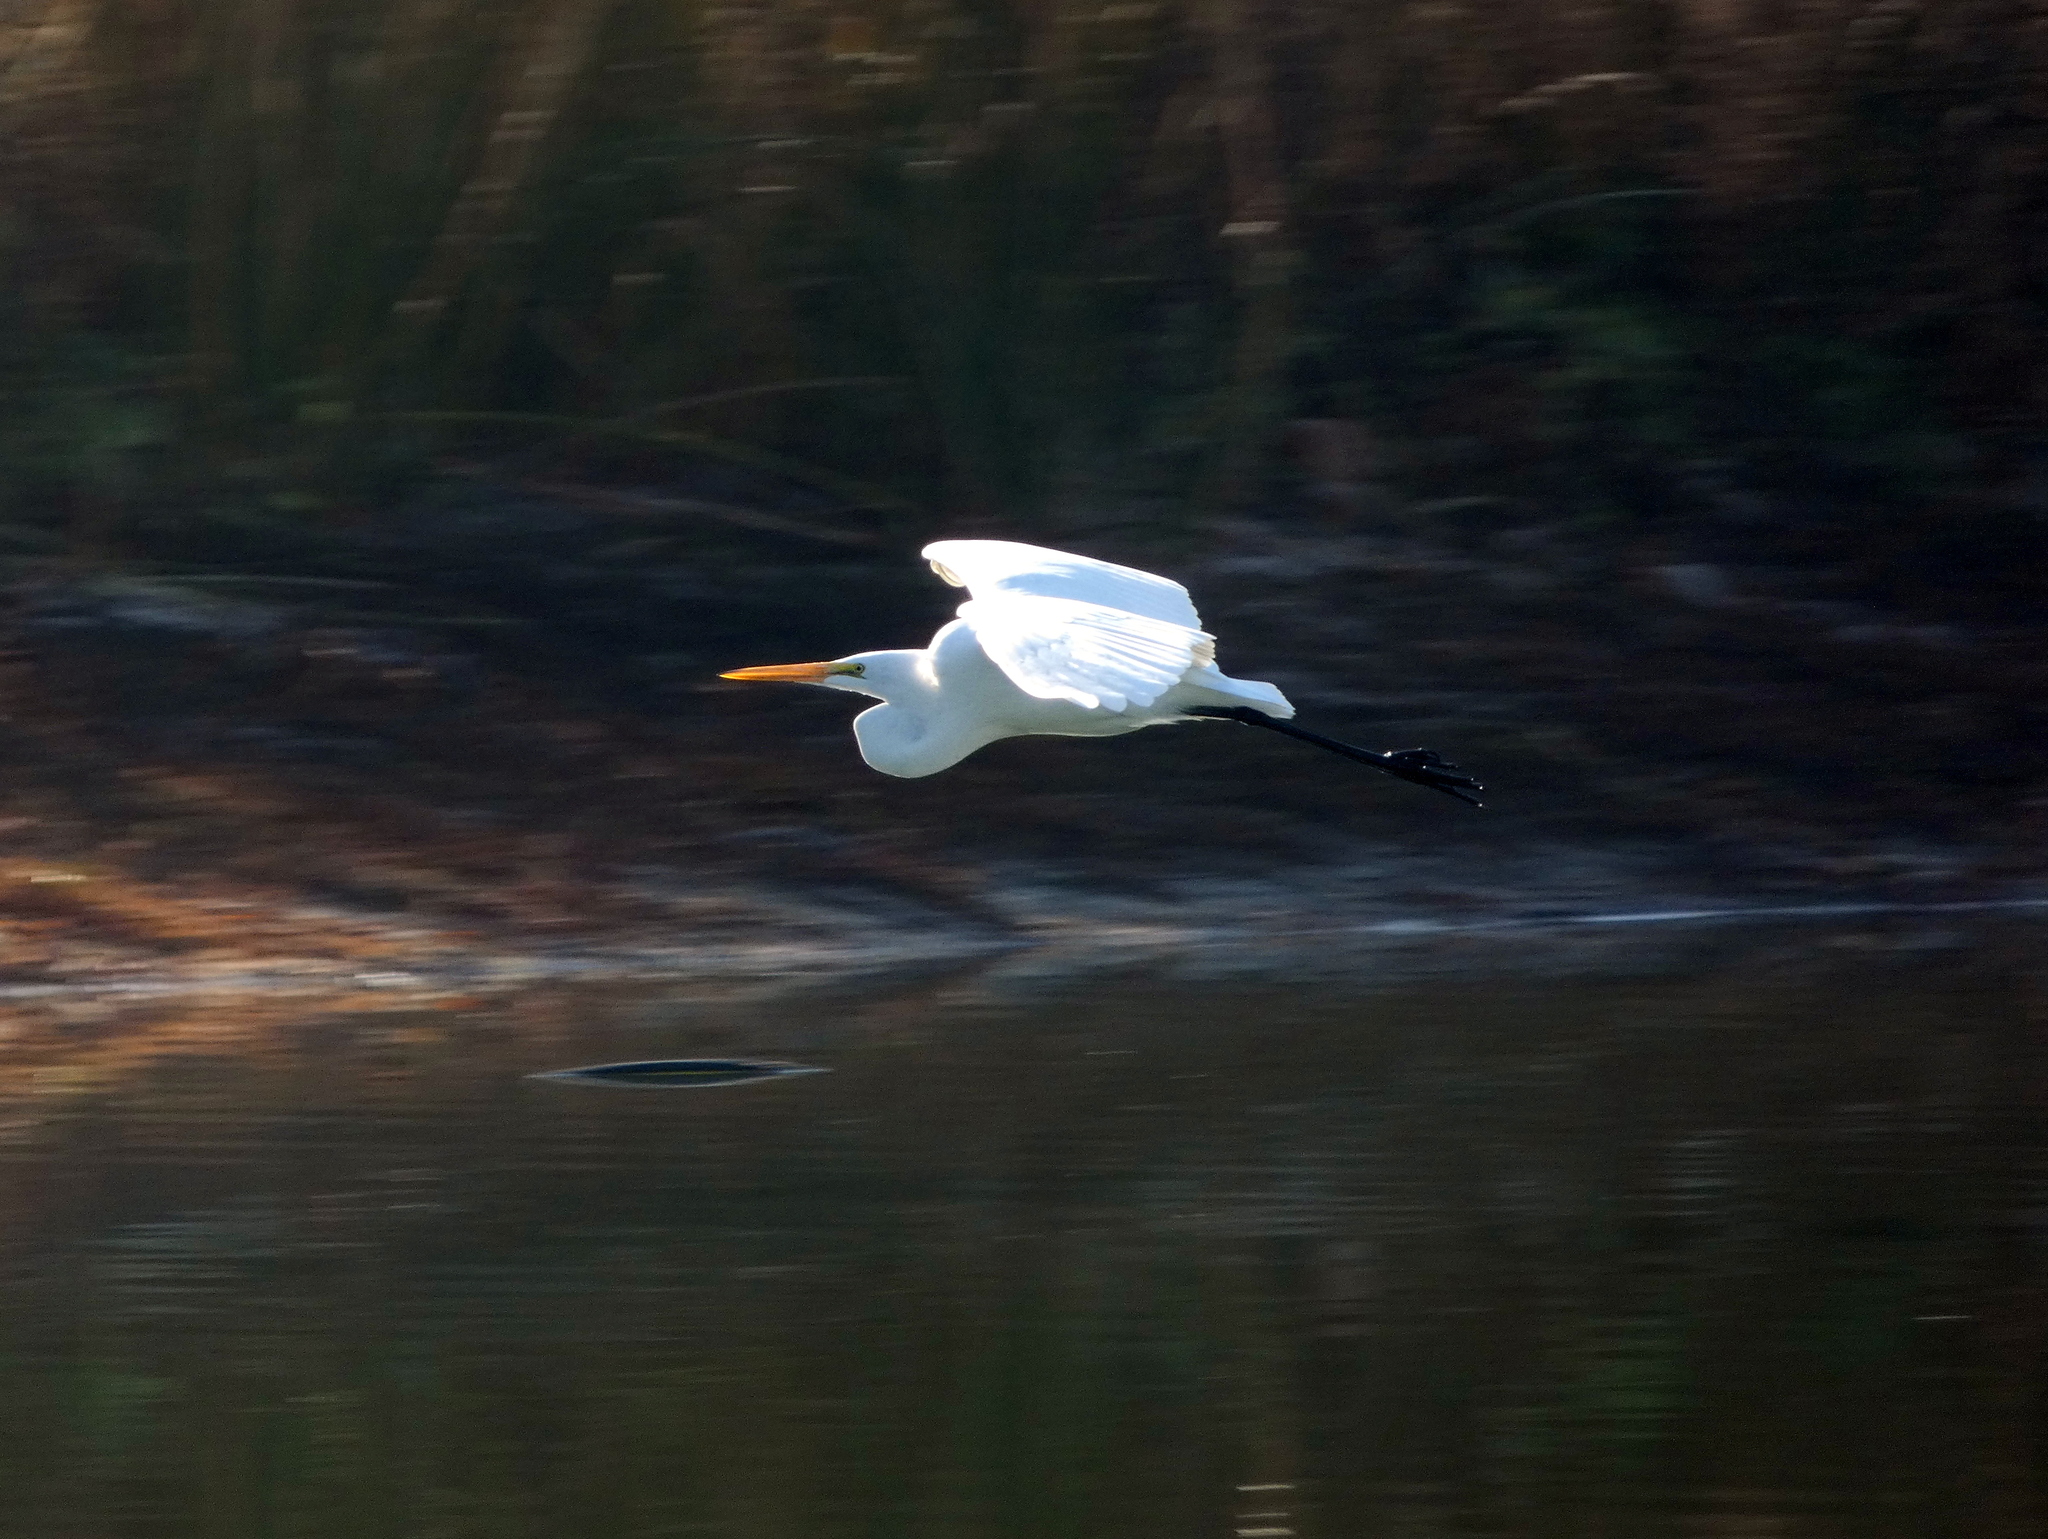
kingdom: Animalia
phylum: Chordata
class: Aves
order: Pelecaniformes
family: Ardeidae
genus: Ardea
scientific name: Ardea alba
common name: Great egret
